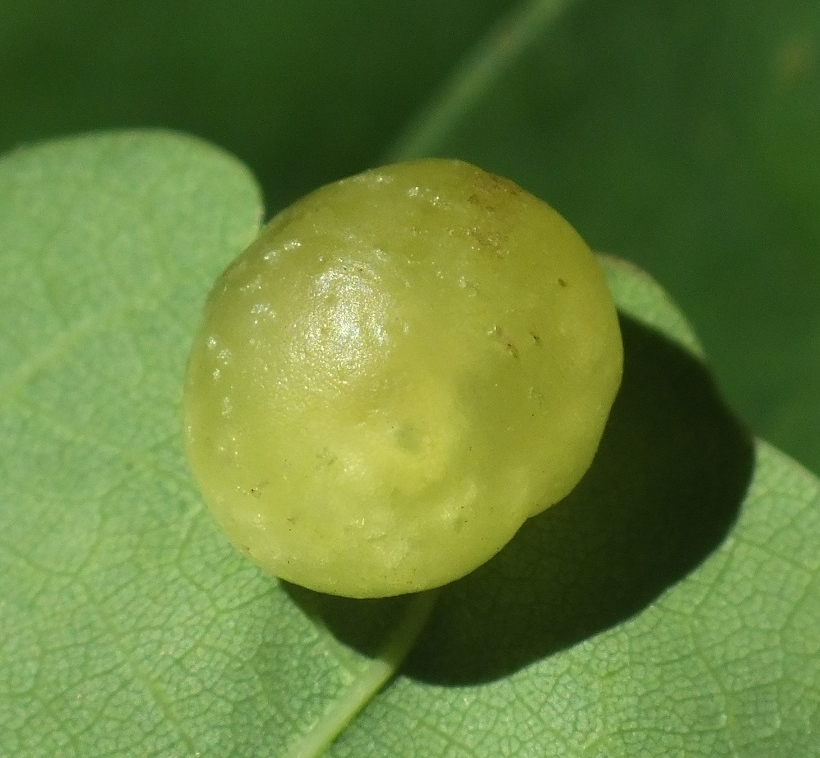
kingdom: Animalia
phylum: Arthropoda
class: Insecta
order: Hymenoptera
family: Cynipidae
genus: Neuroterus
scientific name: Neuroterus quercusbaccarum
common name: Common spangle gall
